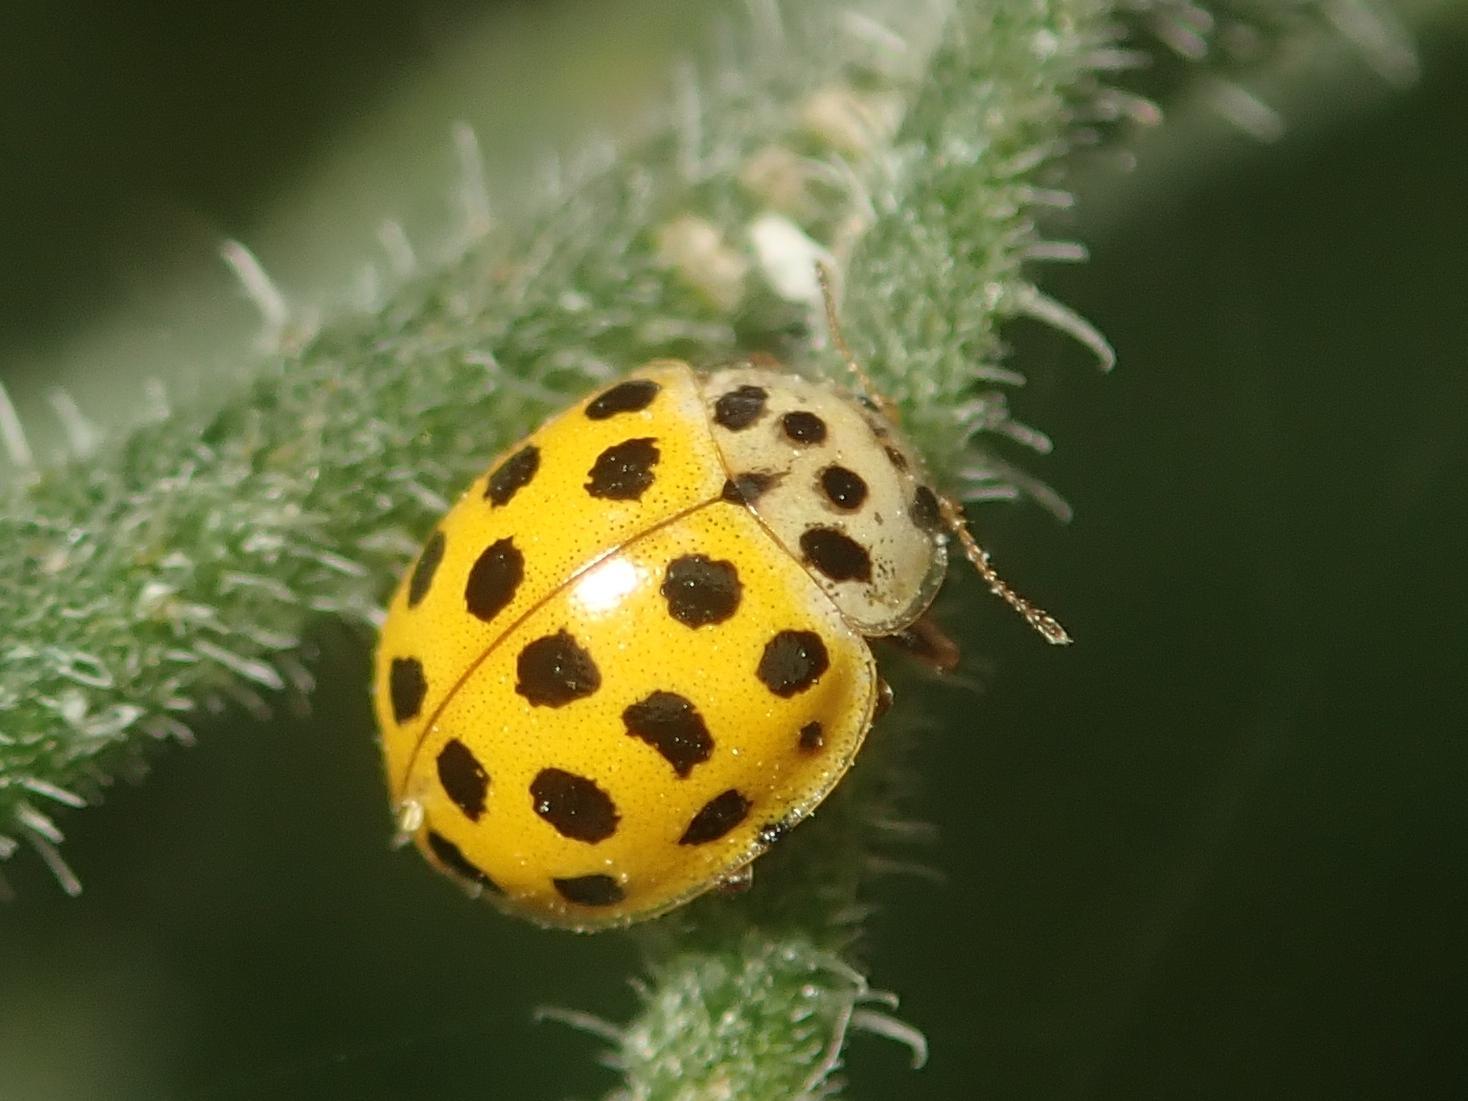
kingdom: Animalia
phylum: Arthropoda
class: Insecta
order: Coleoptera
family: Coccinellidae
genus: Psyllobora
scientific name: Psyllobora vigintiduopunctata
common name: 22-spot ladybird
